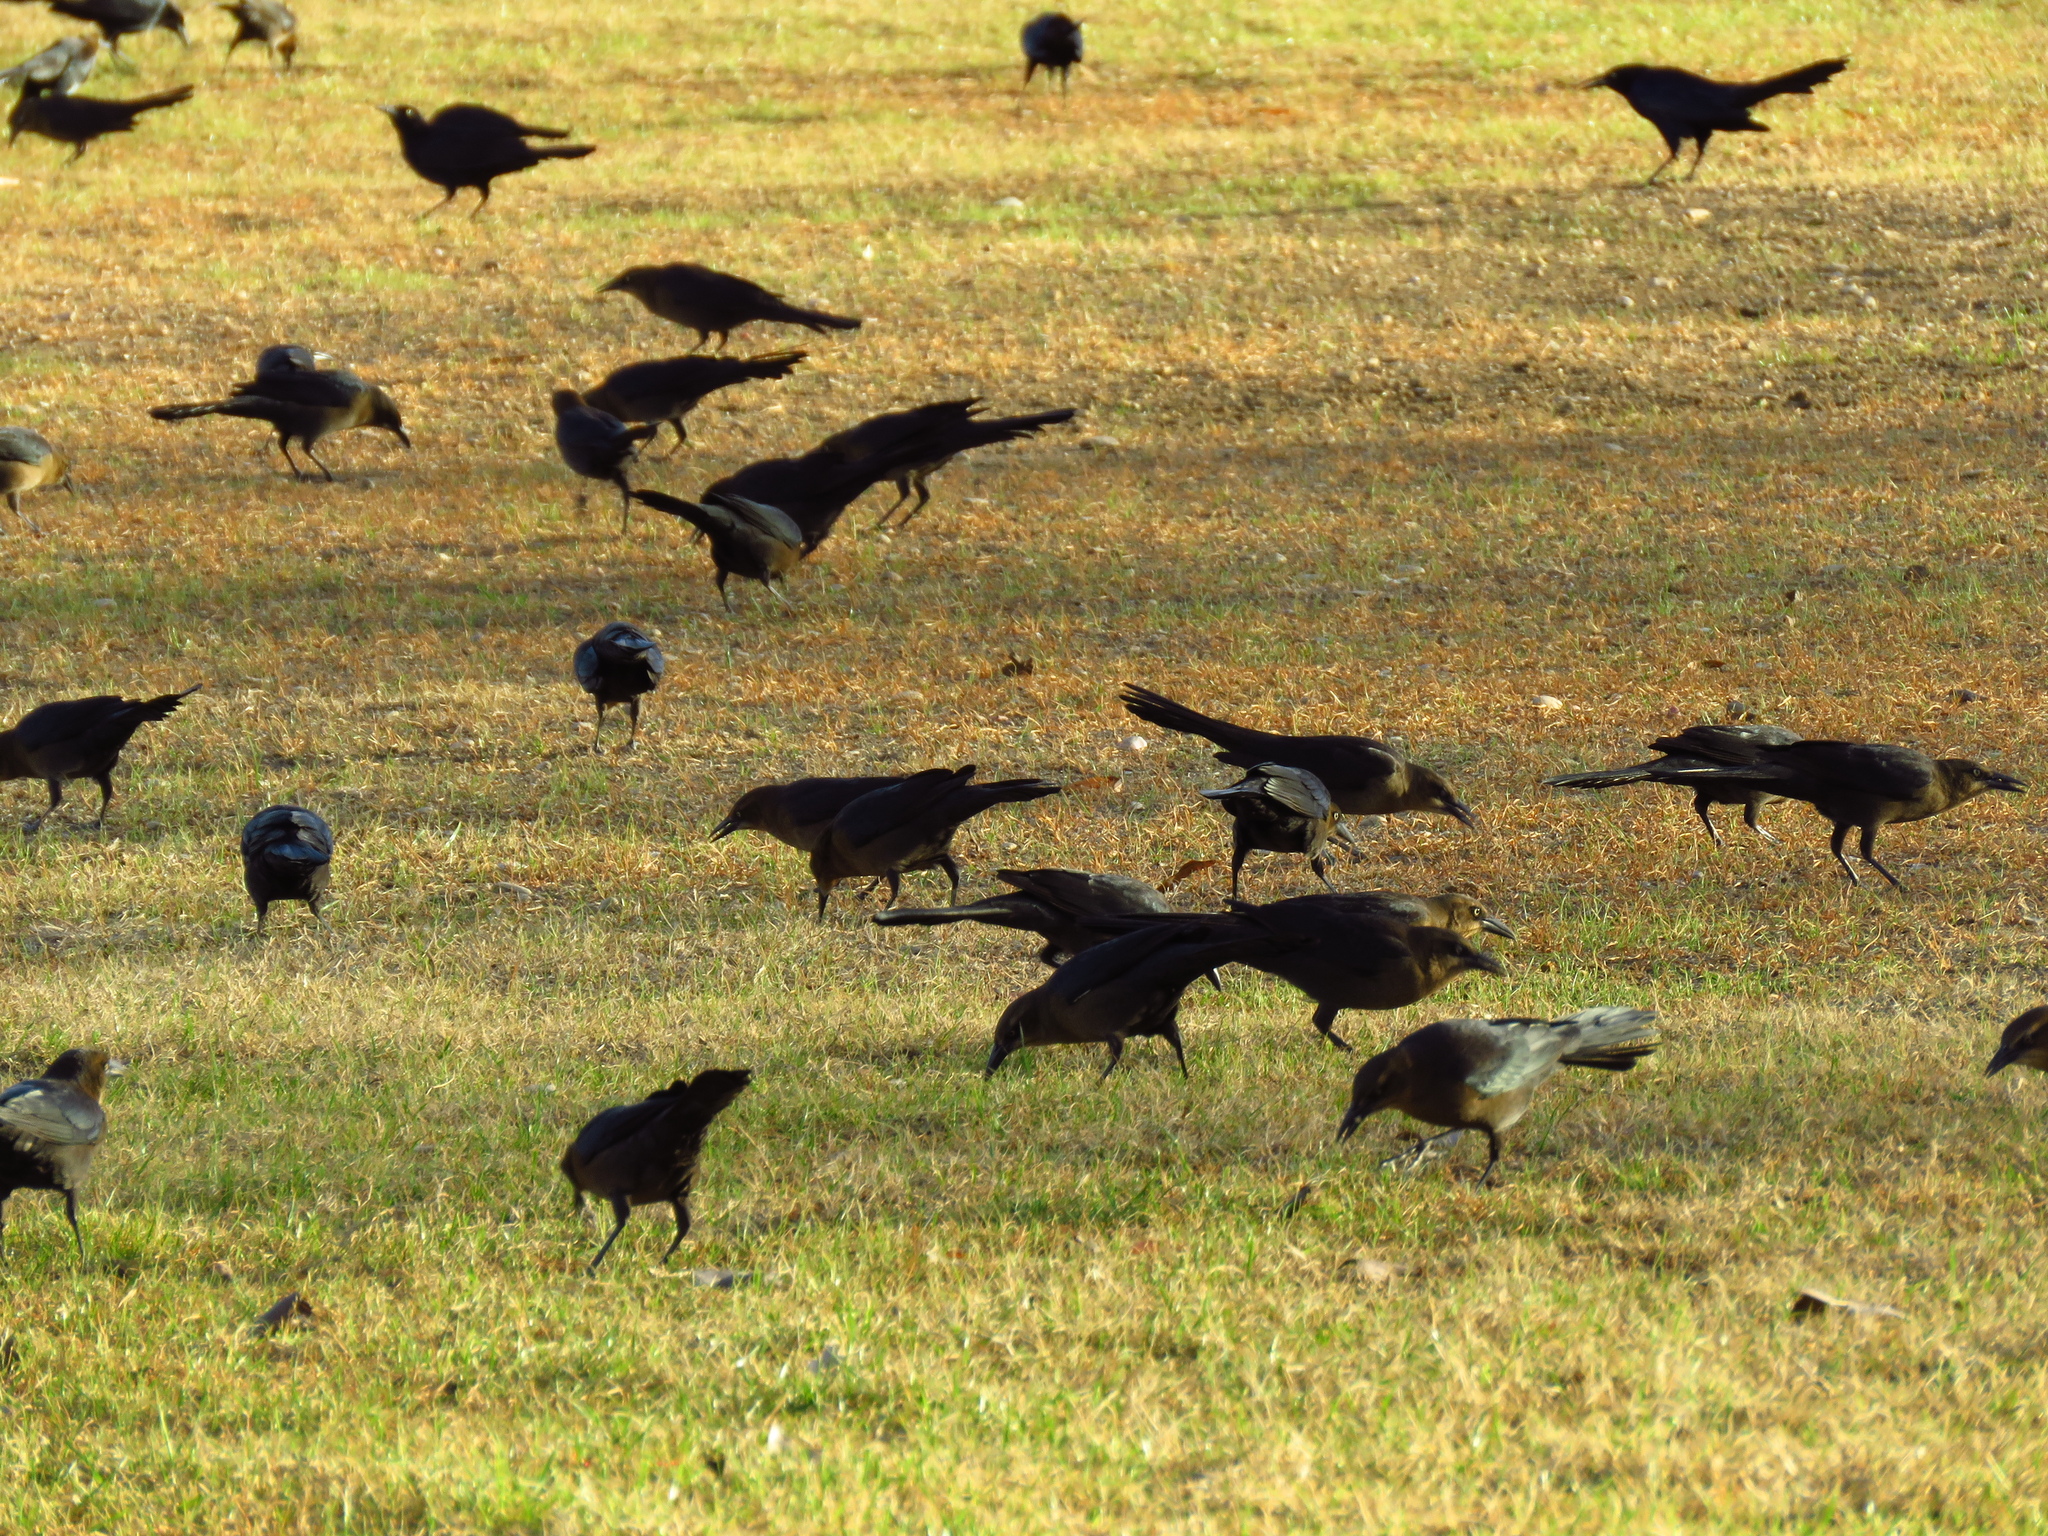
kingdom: Animalia
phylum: Chordata
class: Aves
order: Passeriformes
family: Icteridae
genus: Quiscalus
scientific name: Quiscalus mexicanus
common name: Great-tailed grackle
